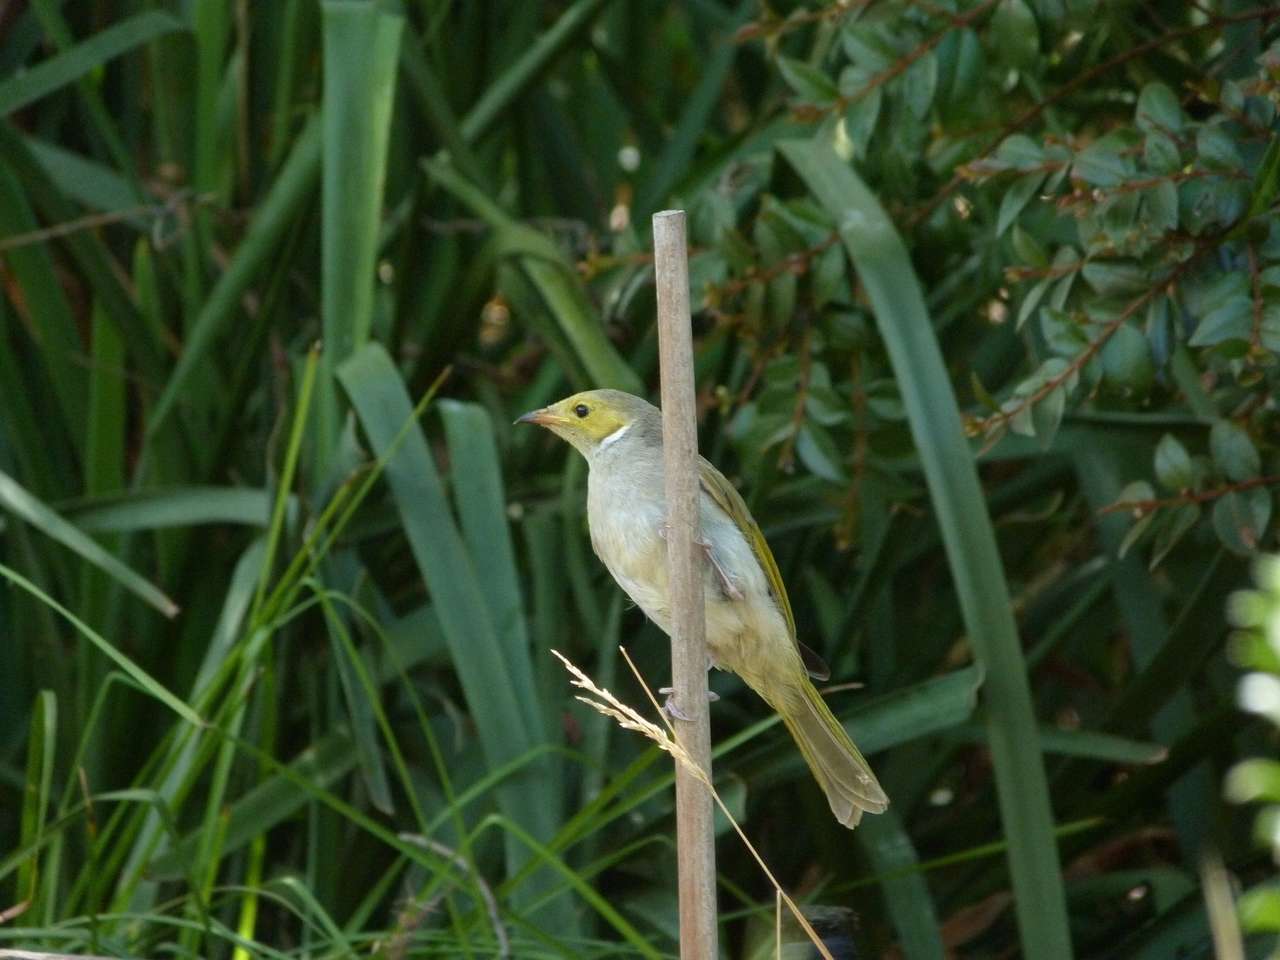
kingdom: Animalia
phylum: Chordata
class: Aves
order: Passeriformes
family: Meliphagidae
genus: Ptilotula
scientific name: Ptilotula penicillata
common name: White-plumed honeyeater
